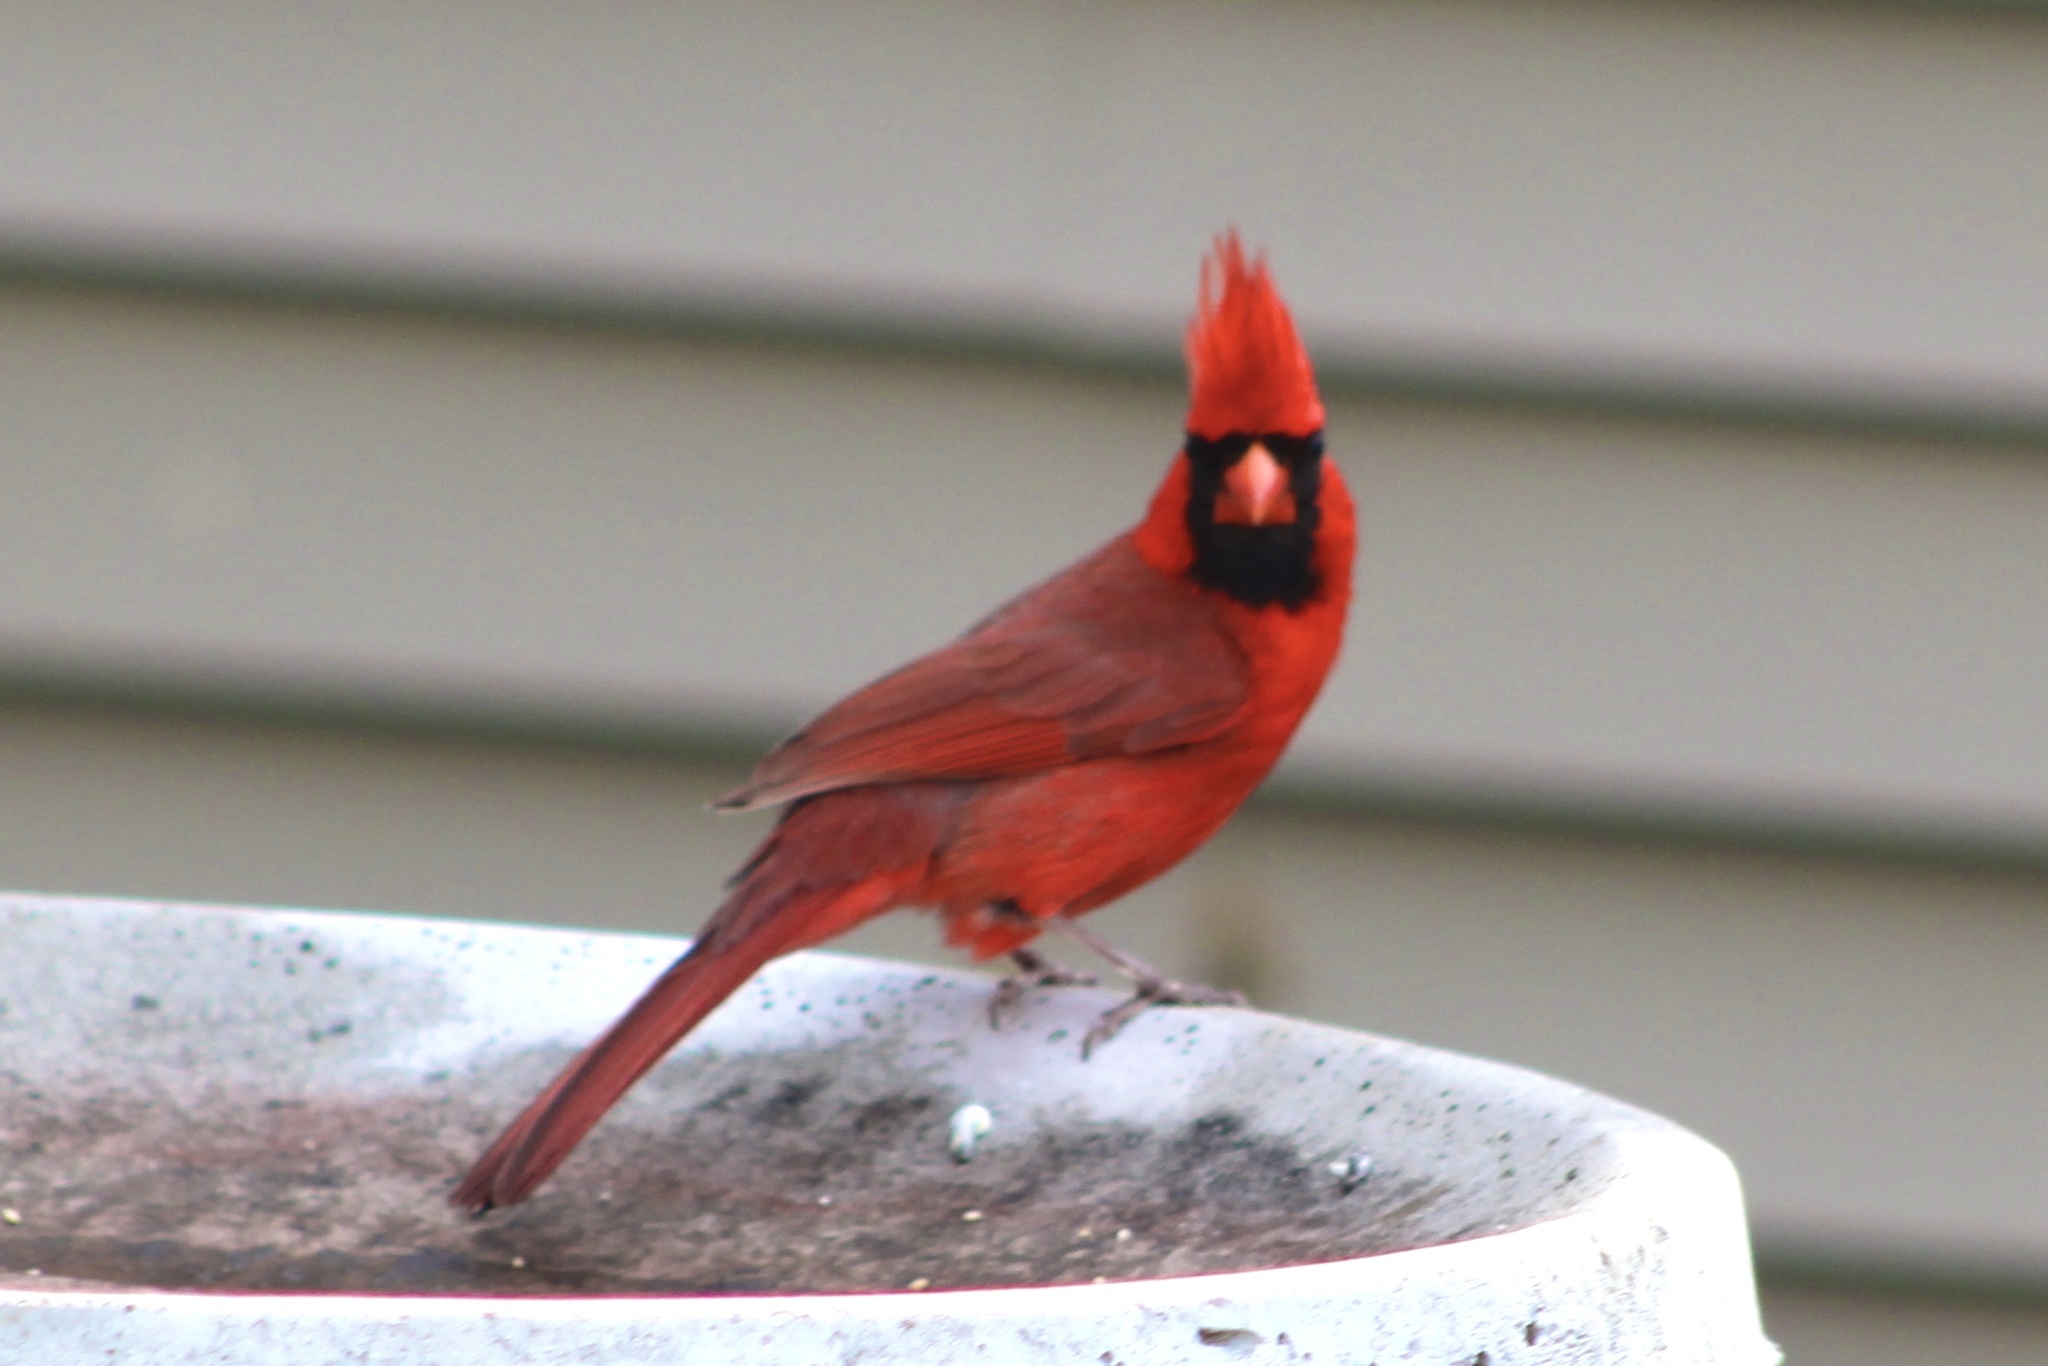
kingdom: Animalia
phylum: Chordata
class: Aves
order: Passeriformes
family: Cardinalidae
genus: Cardinalis
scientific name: Cardinalis cardinalis
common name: Northern cardinal
